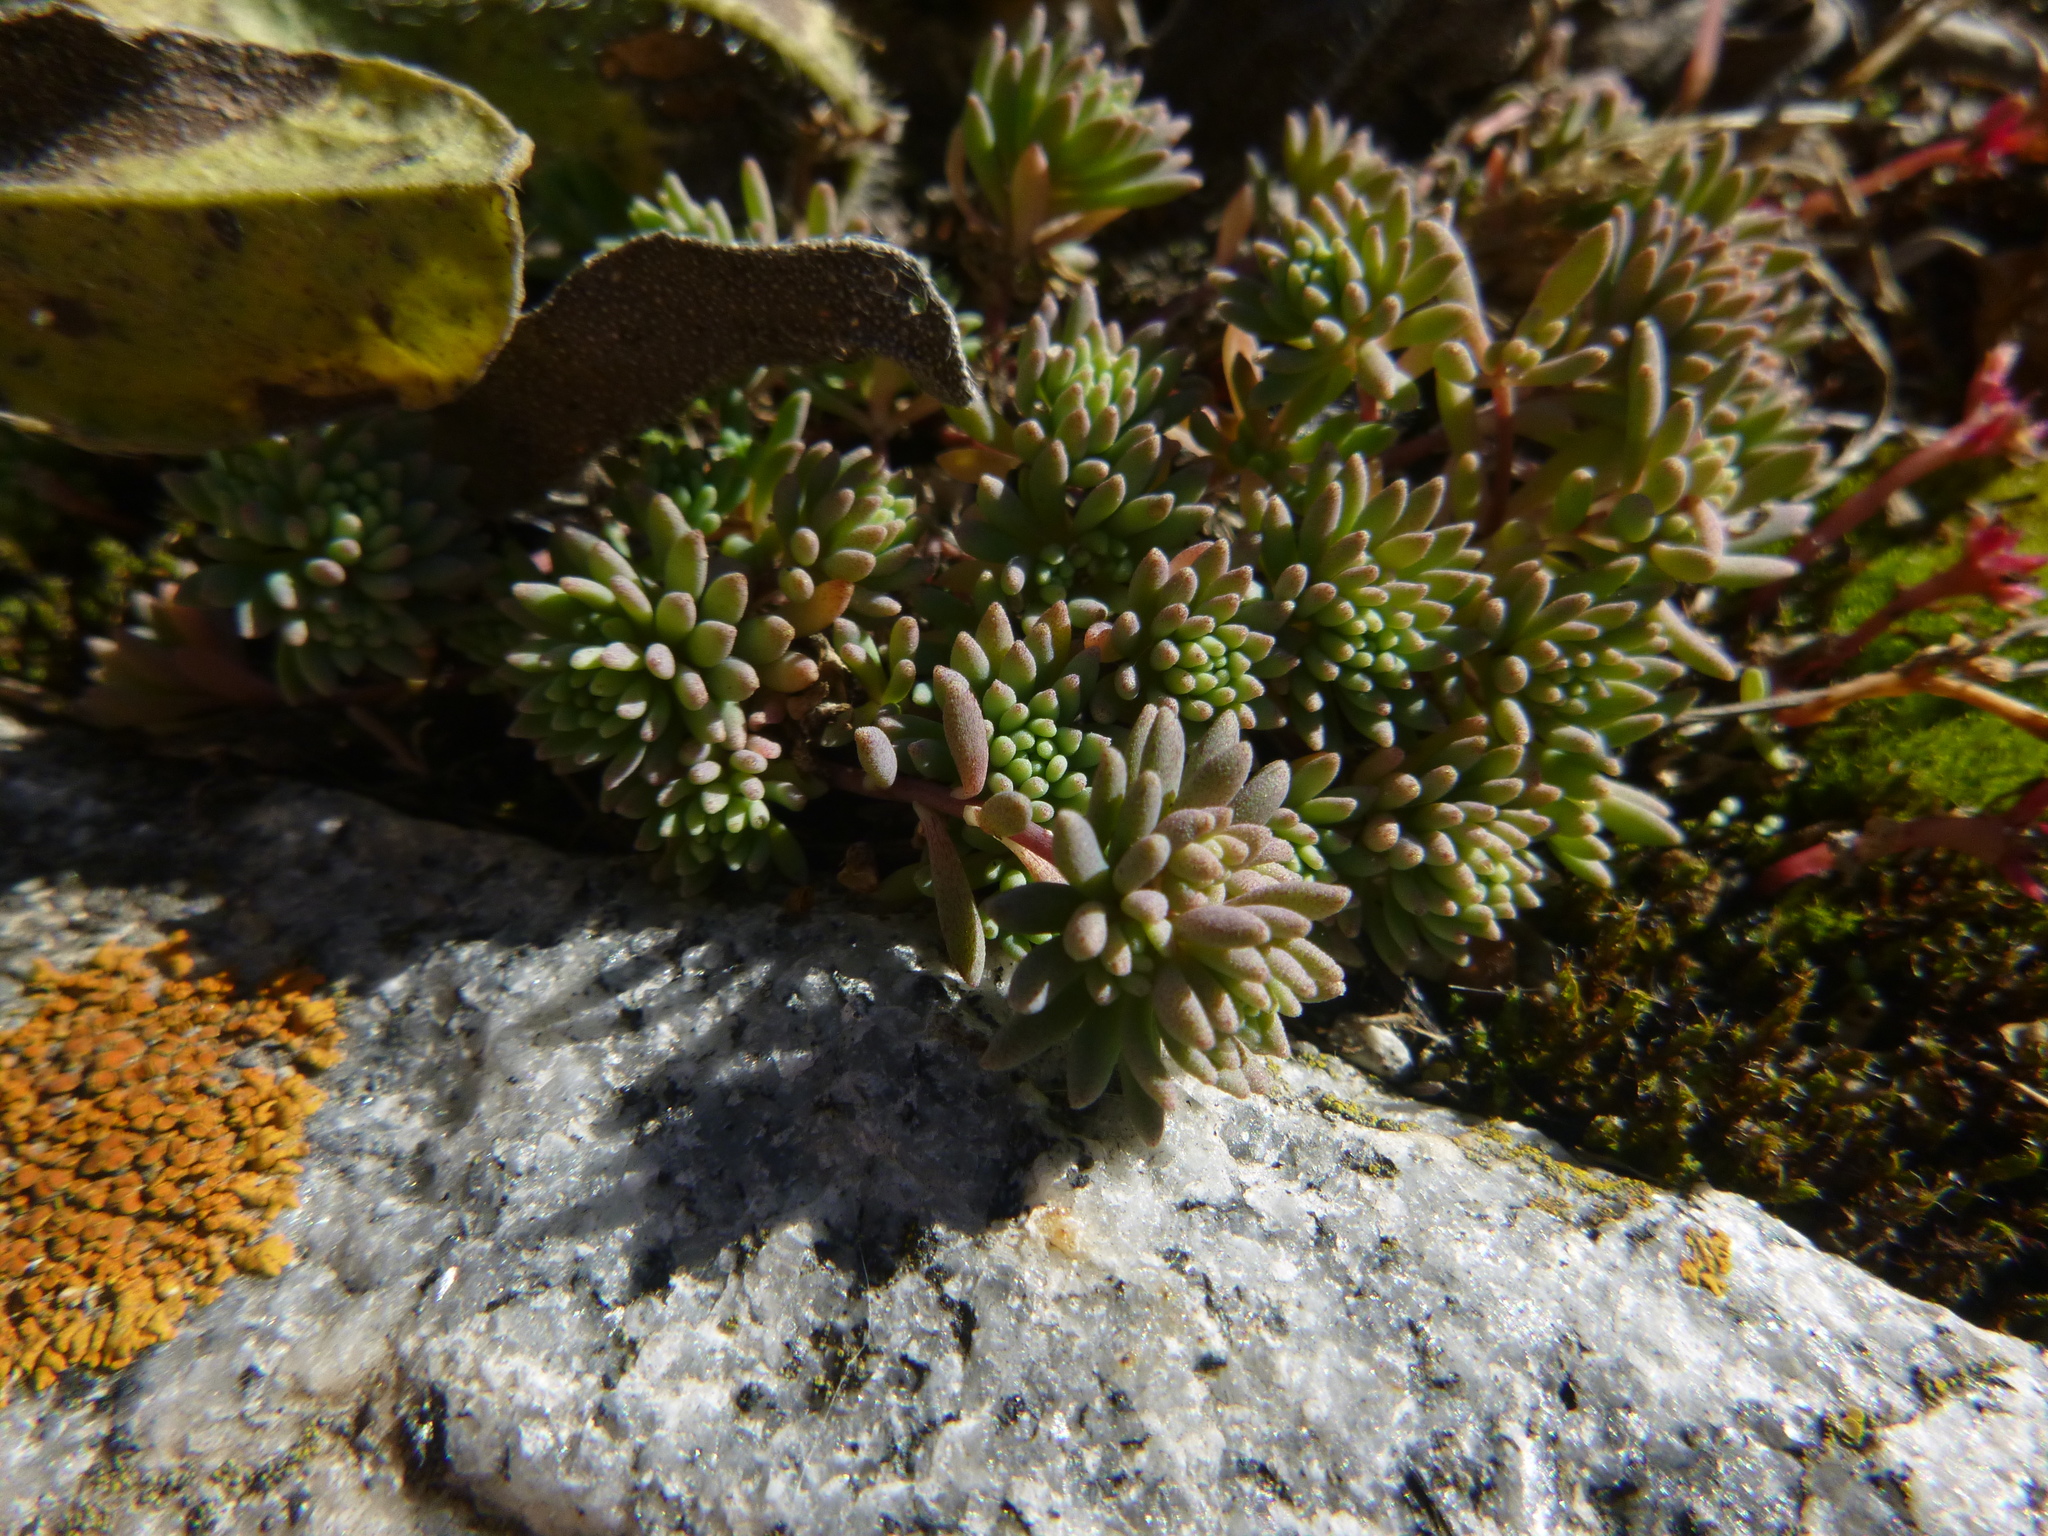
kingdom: Plantae
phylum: Tracheophyta
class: Magnoliopsida
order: Saxifragales
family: Crassulaceae
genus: Sedum
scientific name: Sedum hispanicum
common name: Spanish stonecrop
